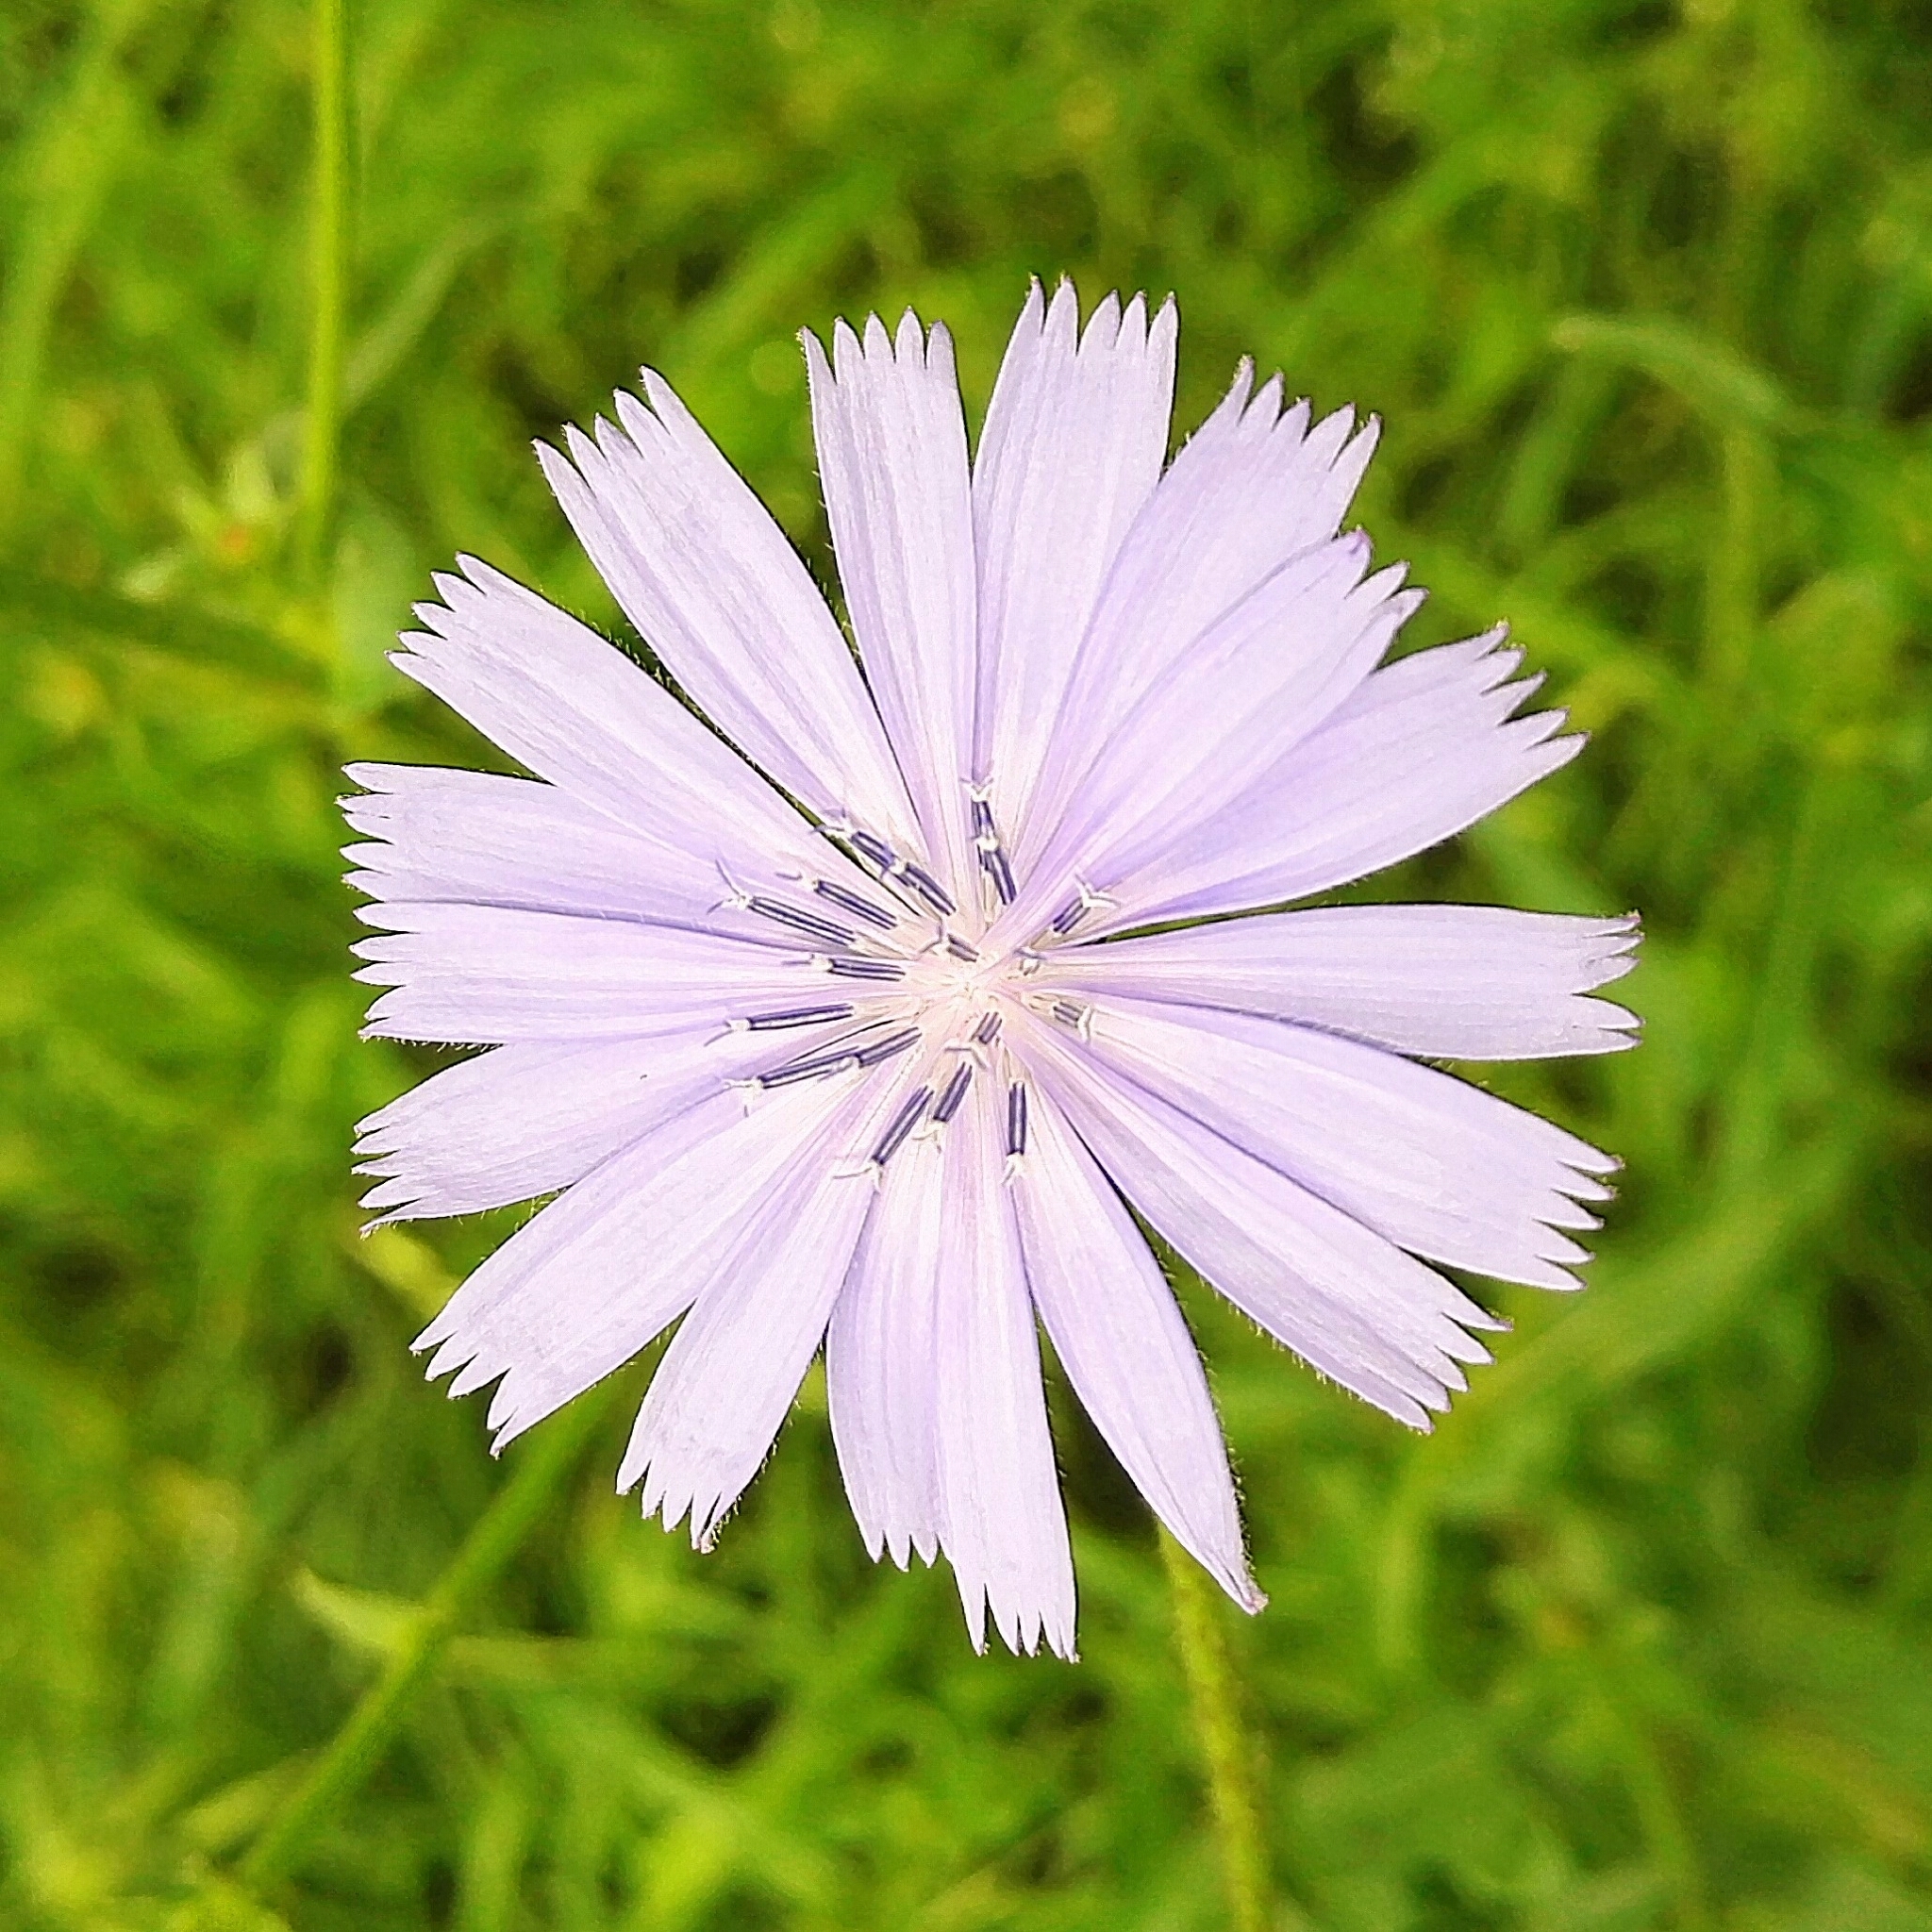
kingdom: Plantae
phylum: Tracheophyta
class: Magnoliopsida
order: Asterales
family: Asteraceae
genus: Cichorium
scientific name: Cichorium intybus
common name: Chicory
